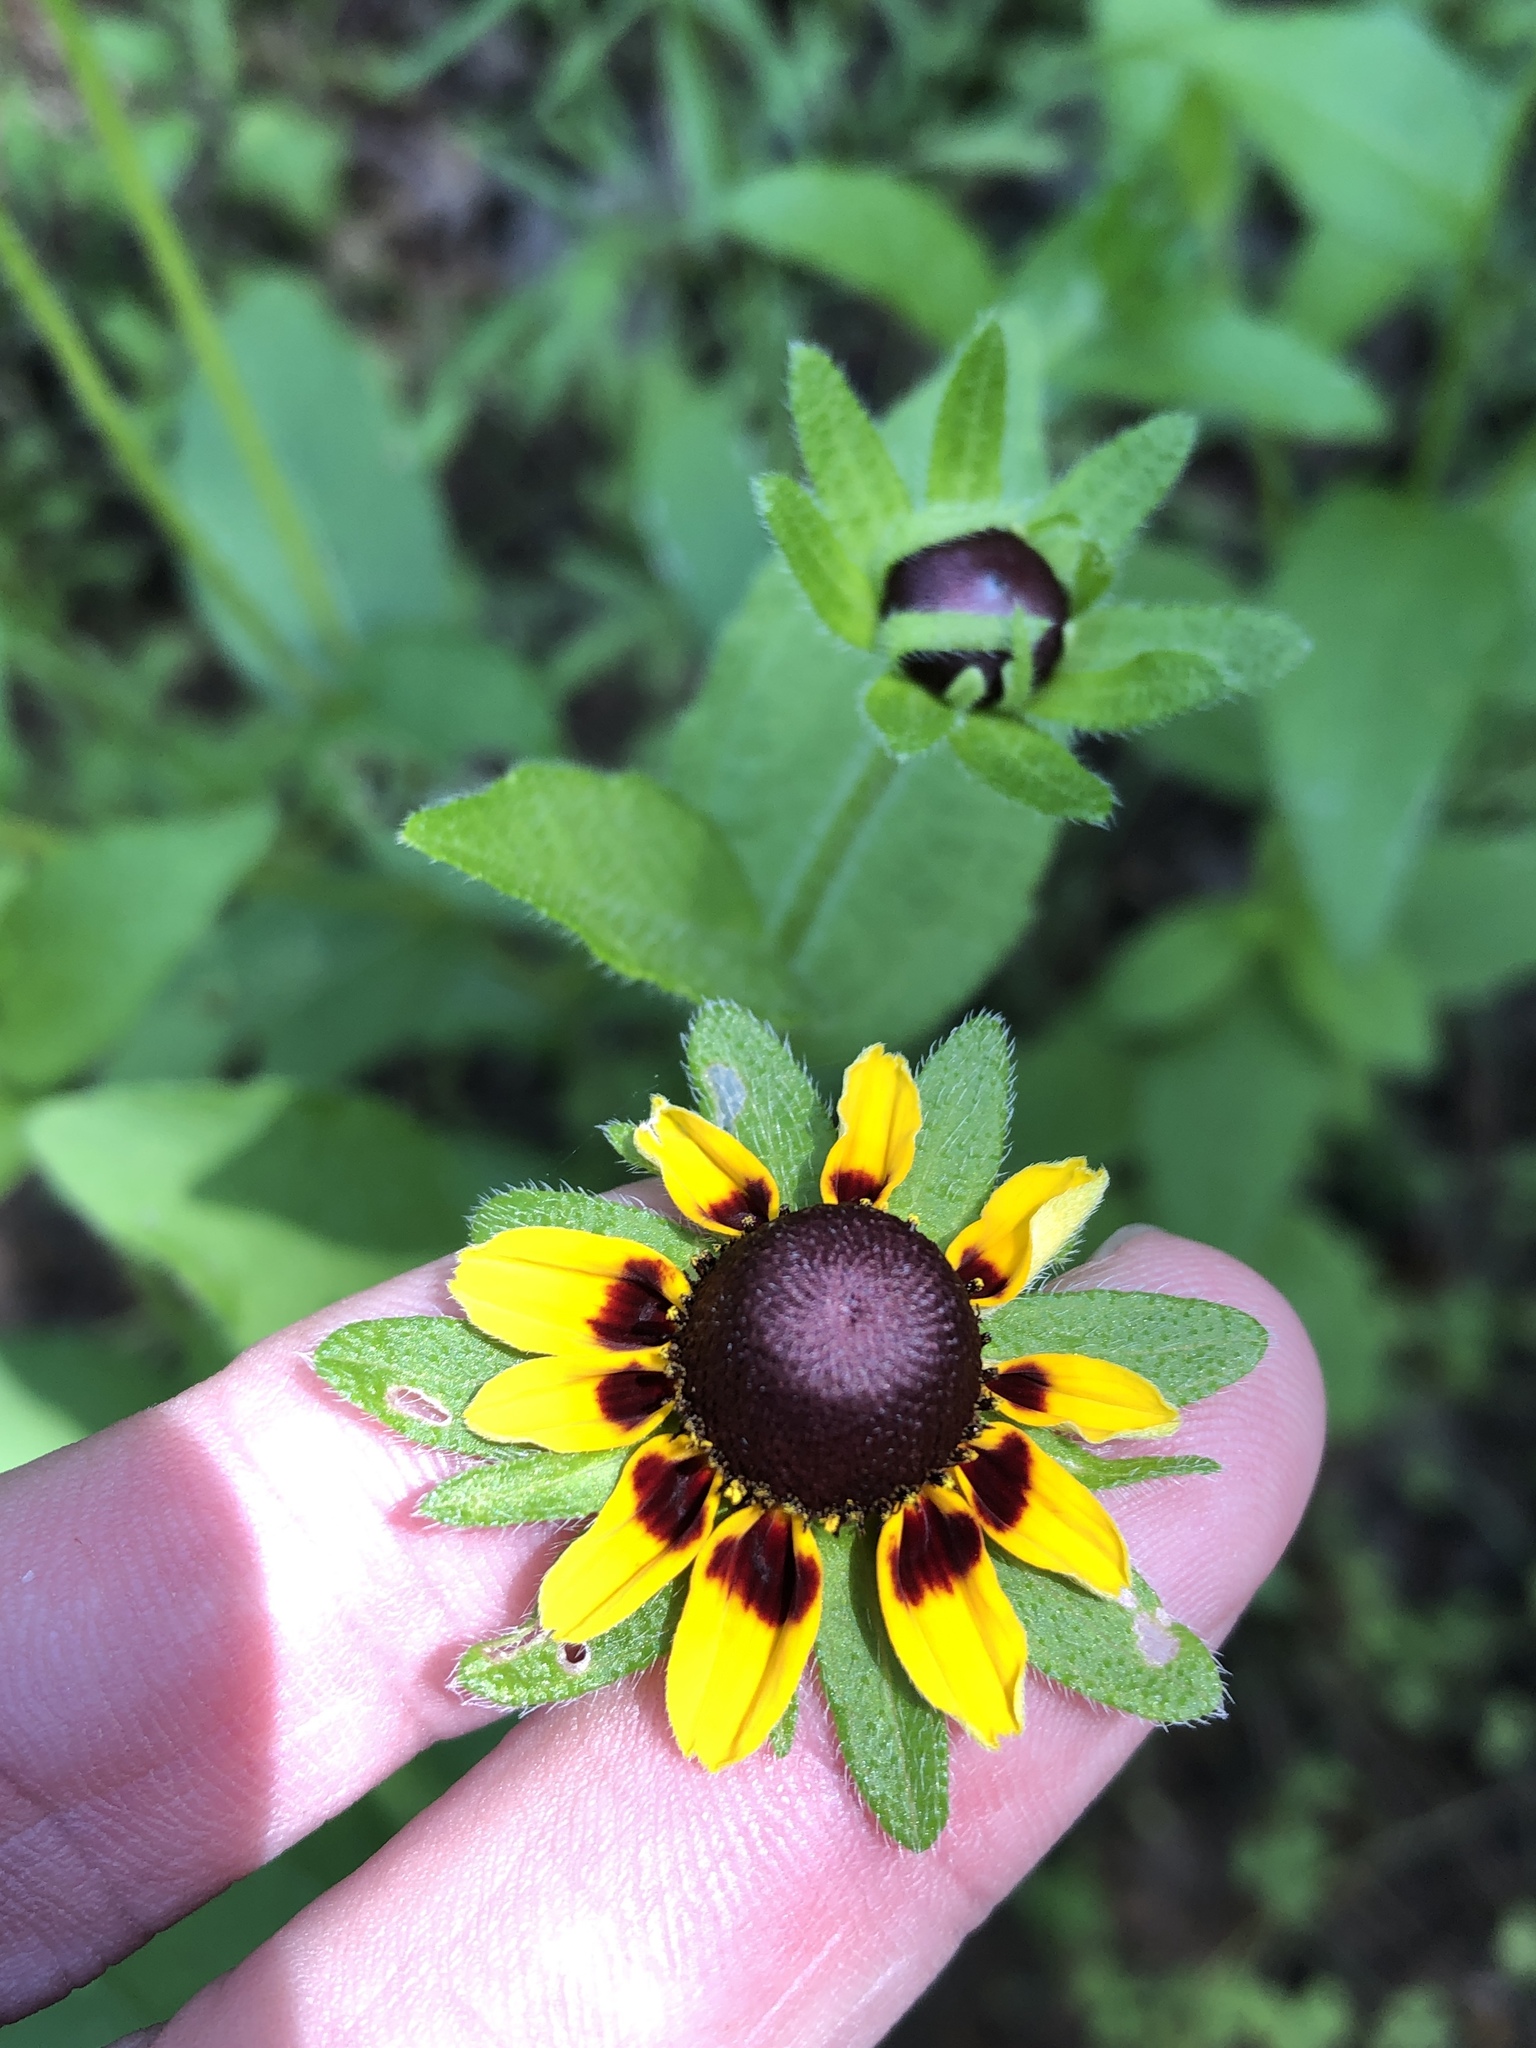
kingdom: Plantae
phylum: Tracheophyta
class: Magnoliopsida
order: Asterales
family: Asteraceae
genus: Rudbeckia
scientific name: Rudbeckia hirta
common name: Black-eyed-susan
